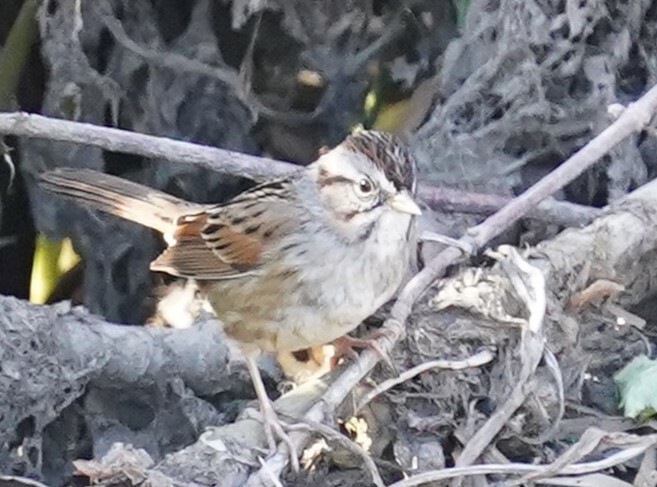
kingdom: Animalia
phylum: Chordata
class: Aves
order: Passeriformes
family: Passerellidae
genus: Melospiza
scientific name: Melospiza georgiana
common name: Swamp sparrow
